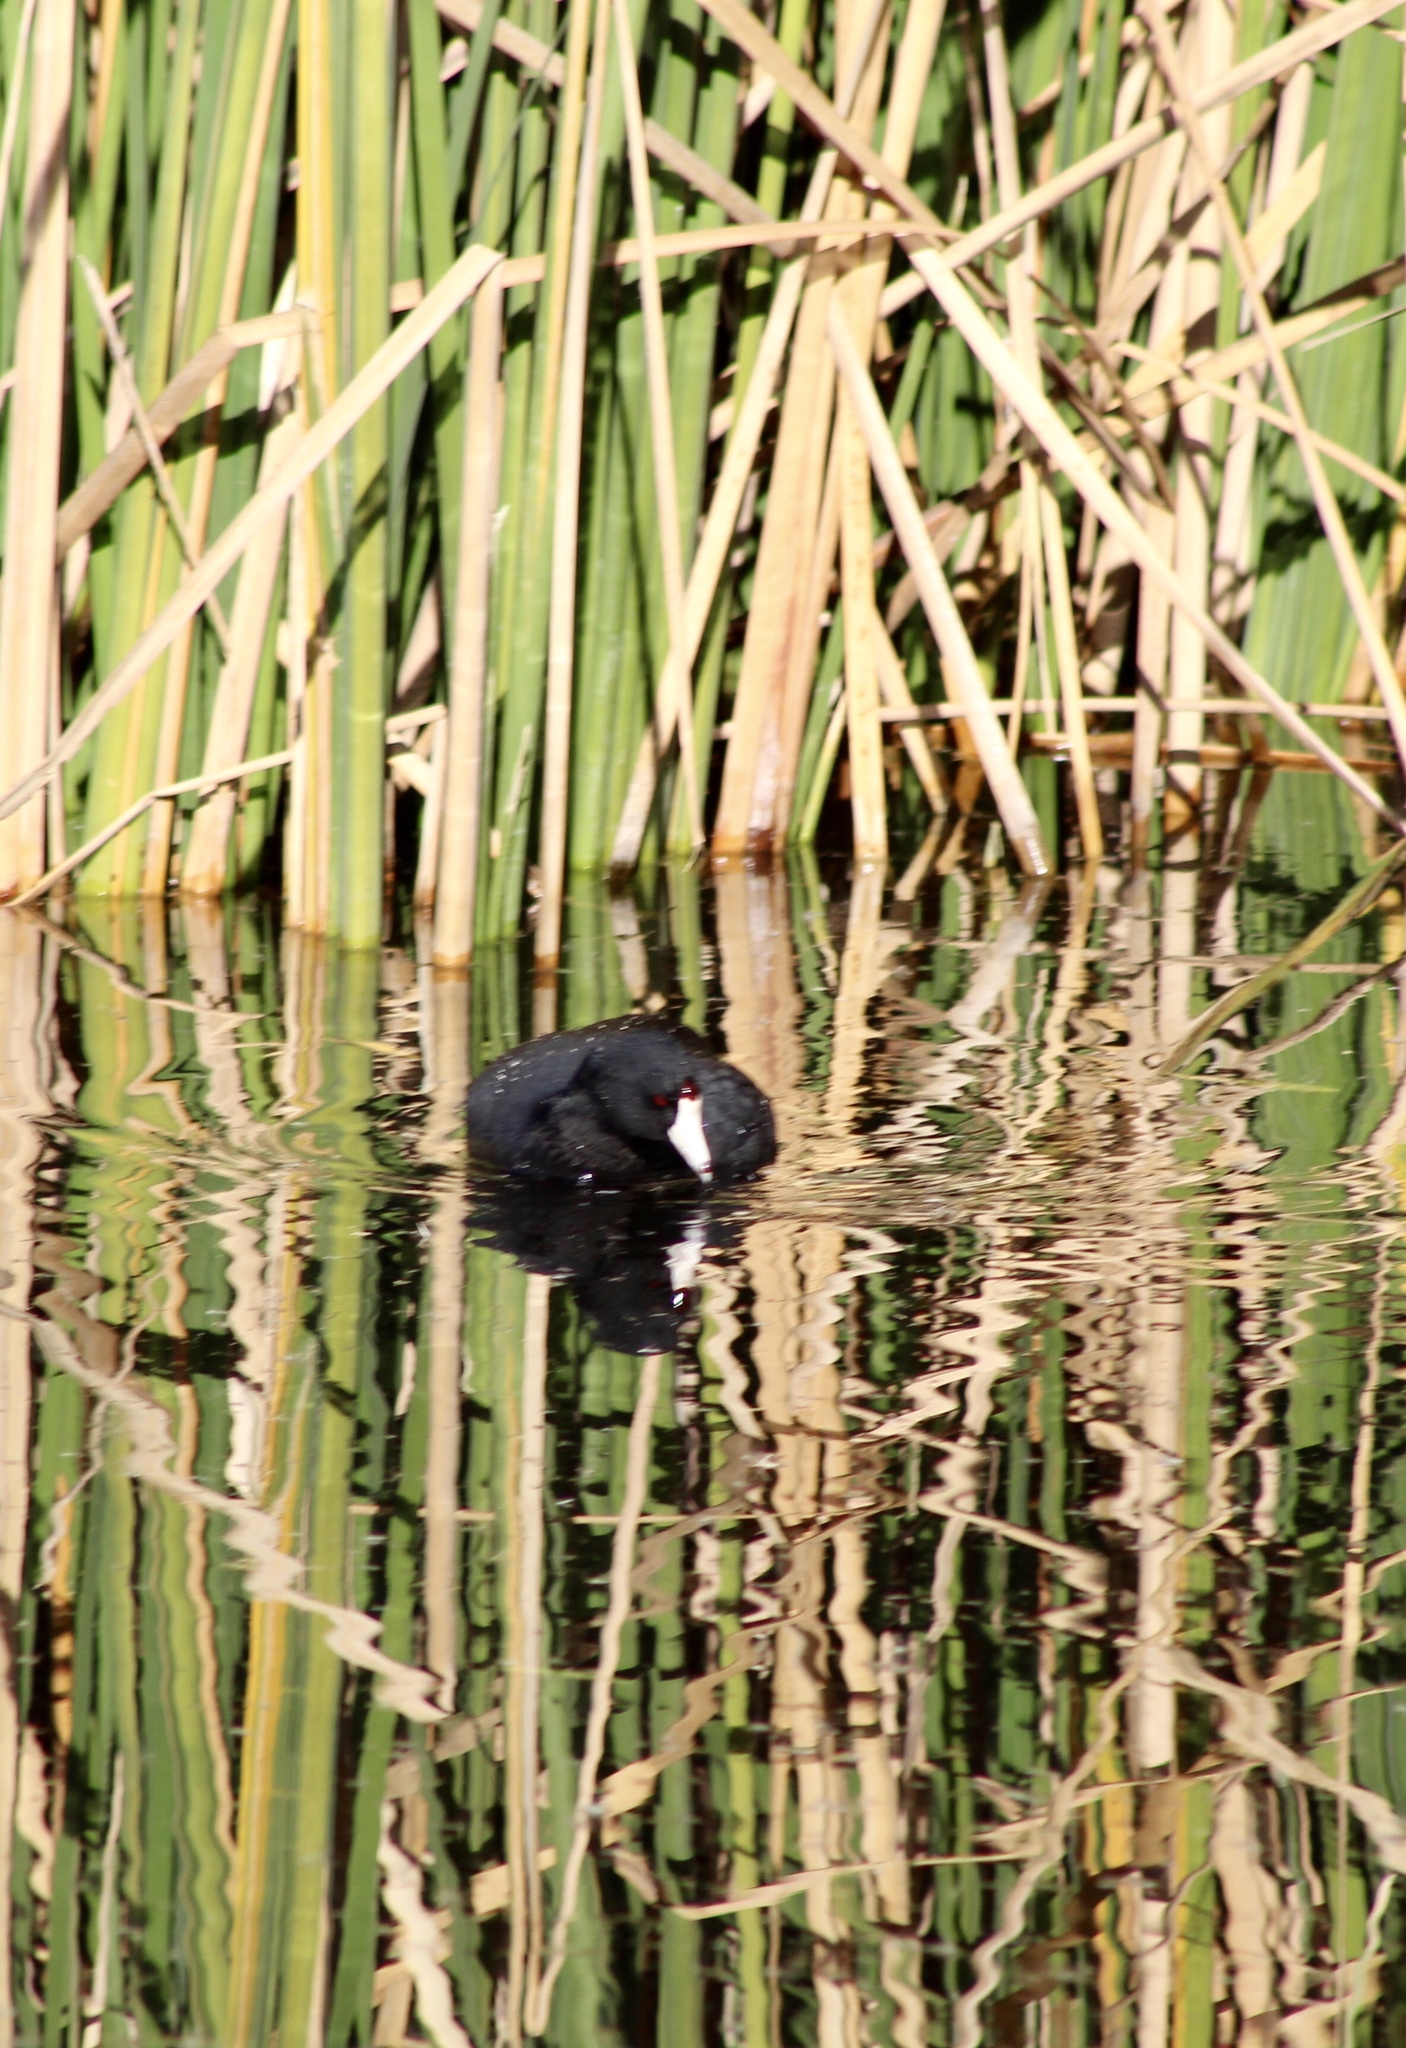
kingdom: Animalia
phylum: Chordata
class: Aves
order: Gruiformes
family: Rallidae
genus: Fulica
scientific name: Fulica americana
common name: American coot
